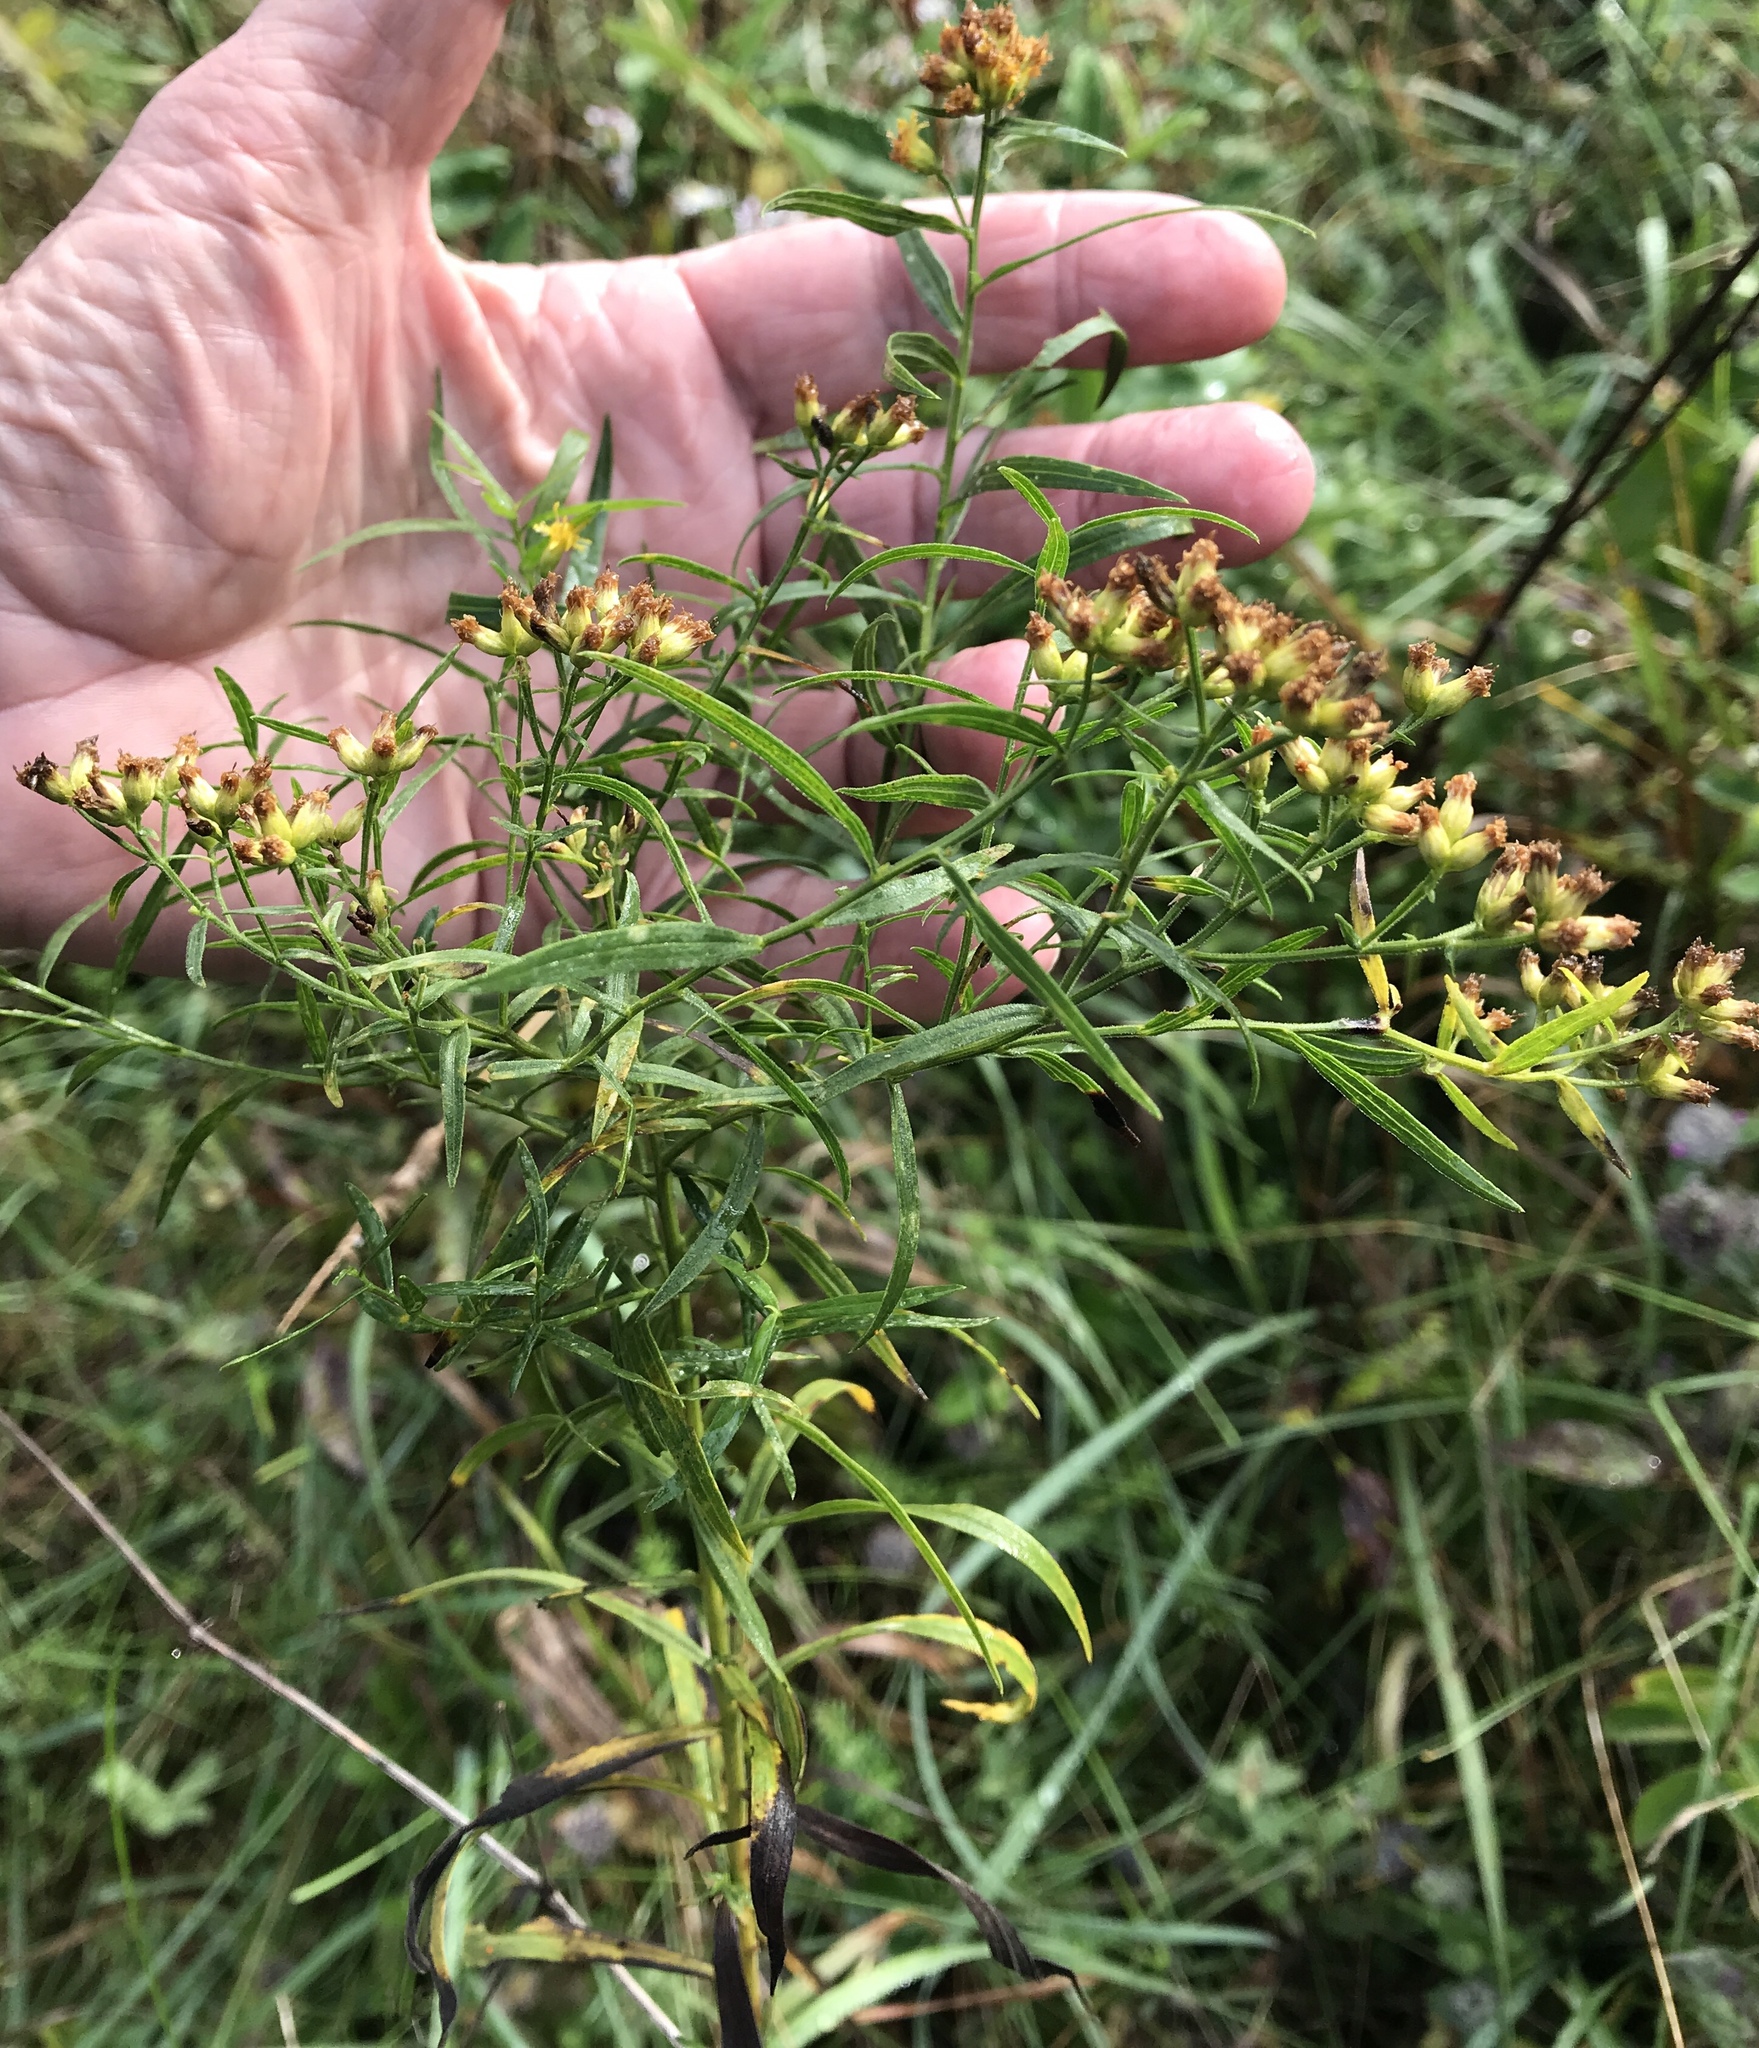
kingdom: Plantae
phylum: Tracheophyta
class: Magnoliopsida
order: Asterales
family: Asteraceae
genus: Euthamia
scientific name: Euthamia graminifolia
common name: Common goldentop
